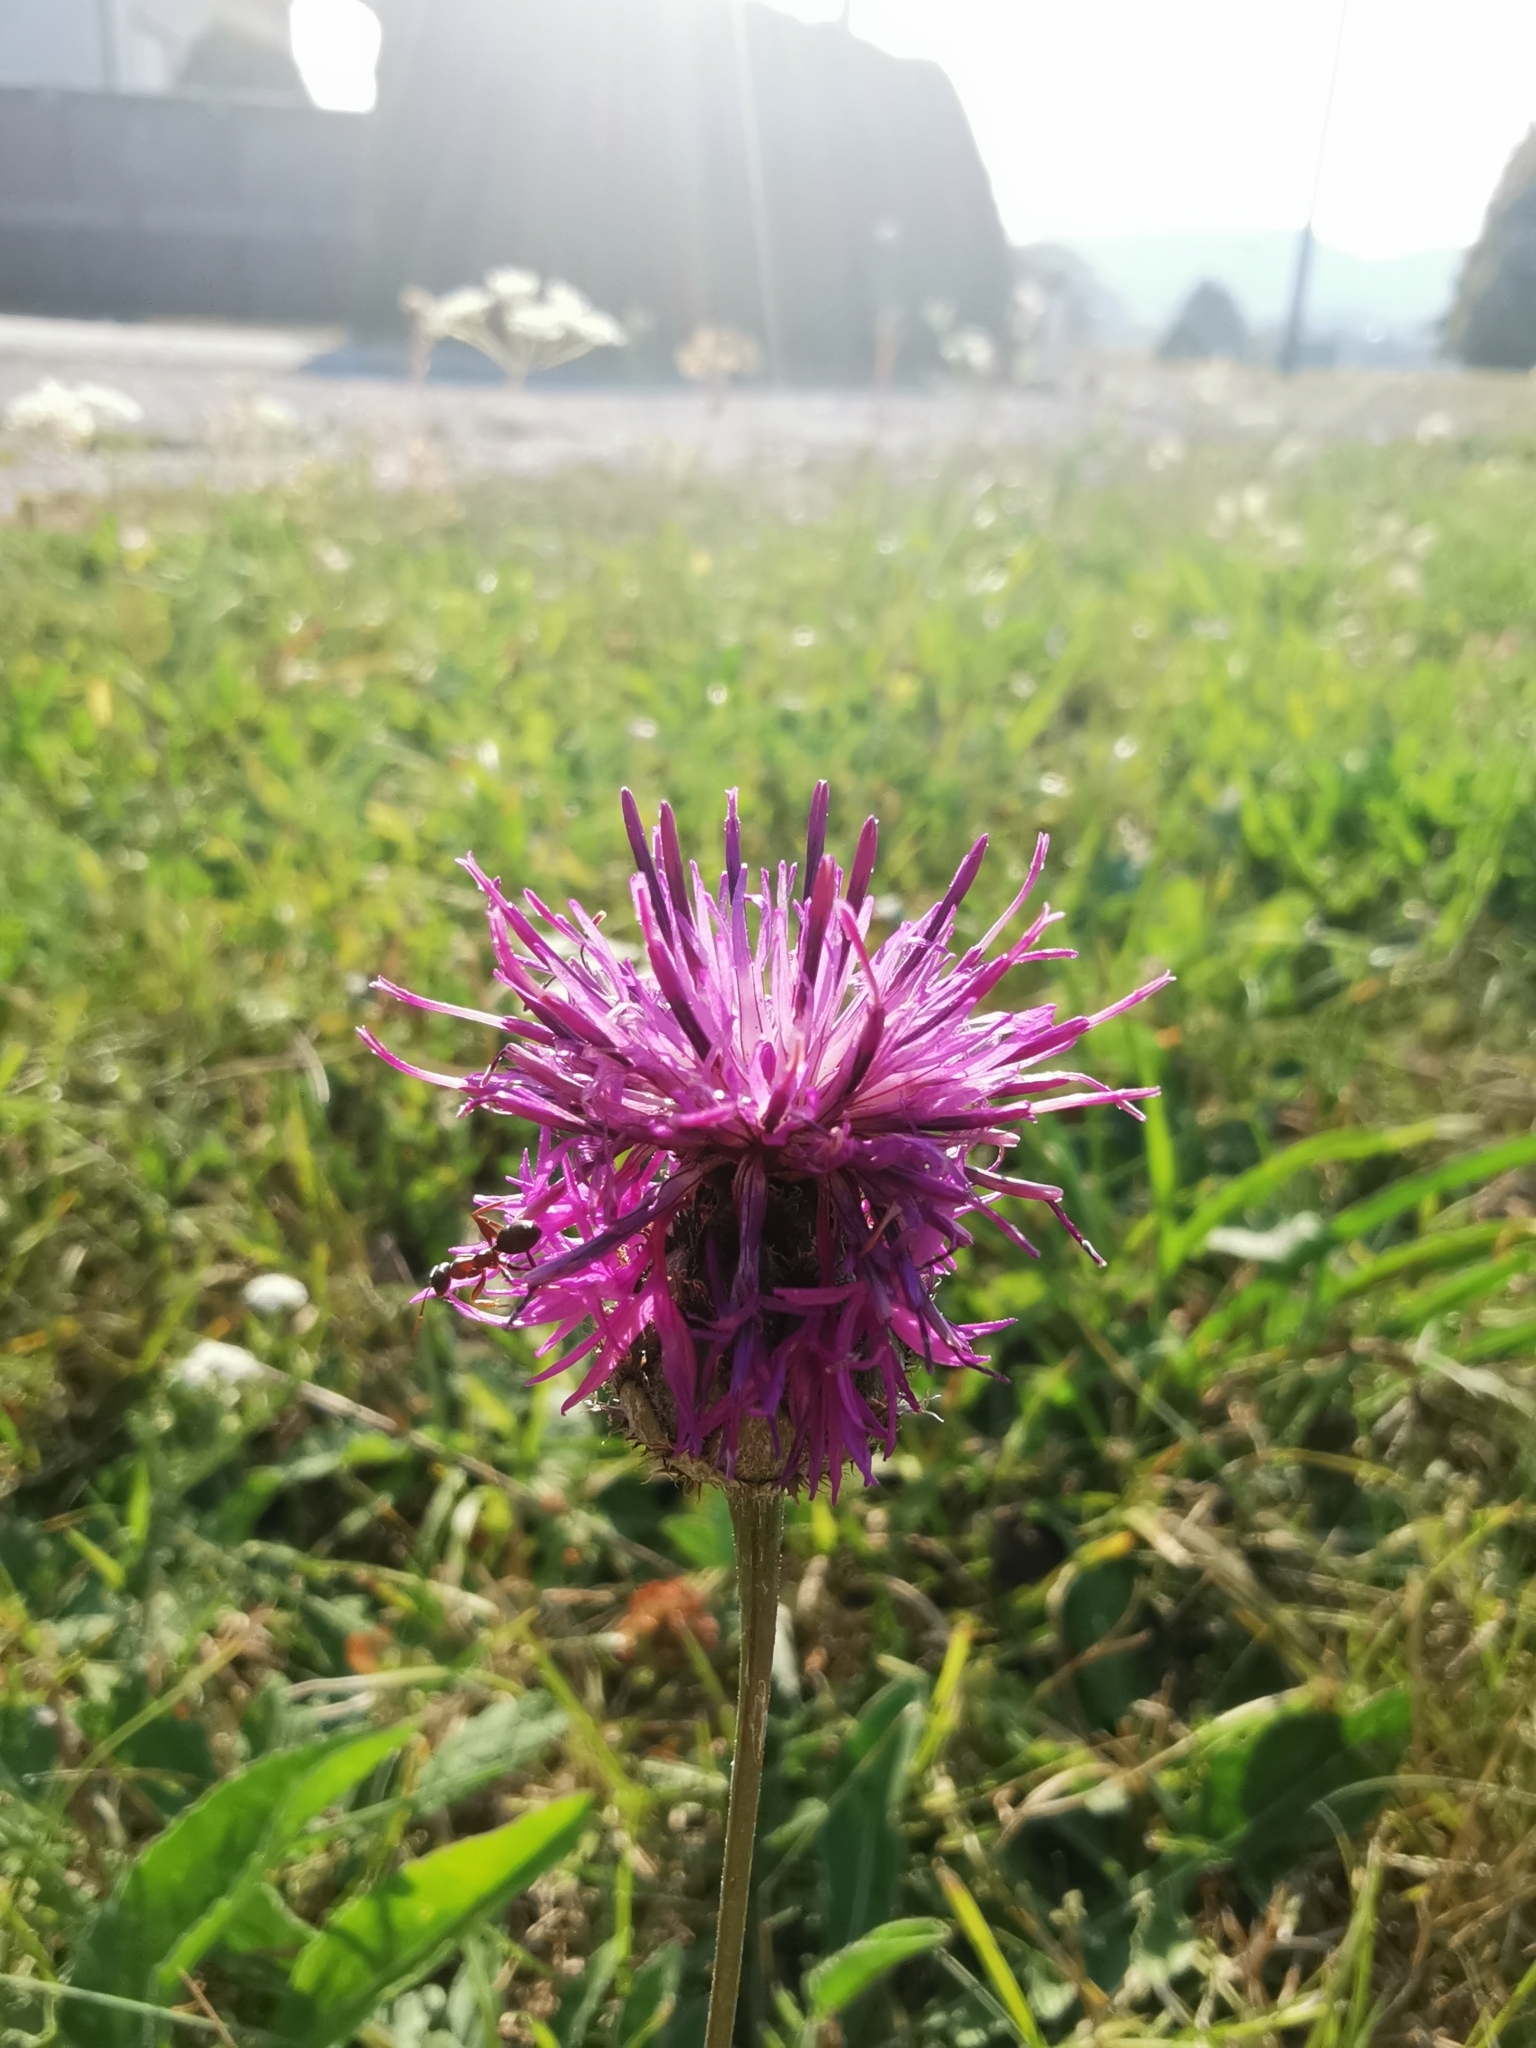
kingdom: Plantae
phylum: Tracheophyta
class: Magnoliopsida
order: Asterales
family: Asteraceae
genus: Centaurea
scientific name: Centaurea scabiosa
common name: Greater knapweed
